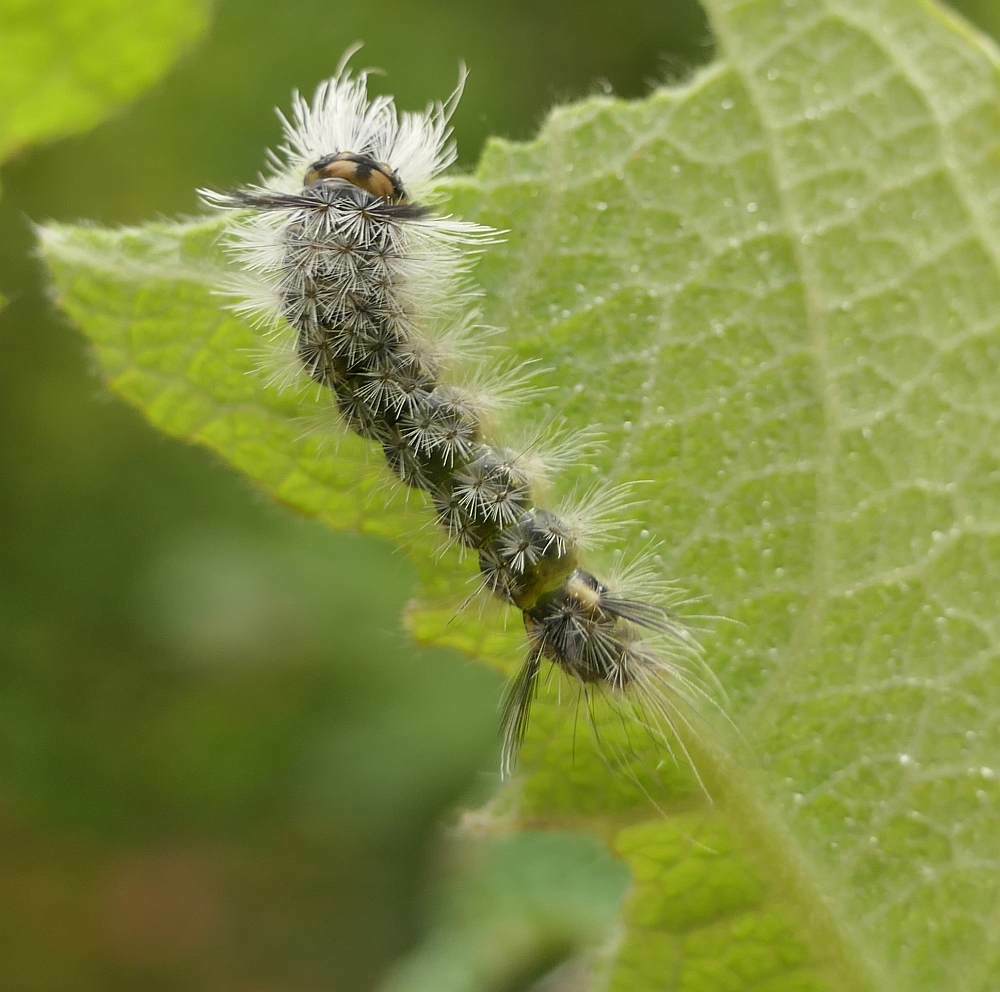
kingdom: Animalia
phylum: Arthropoda
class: Insecta
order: Lepidoptera
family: Erebidae
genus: Halysidota
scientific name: Halysidota tessellaris
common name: Banded tussock moth
